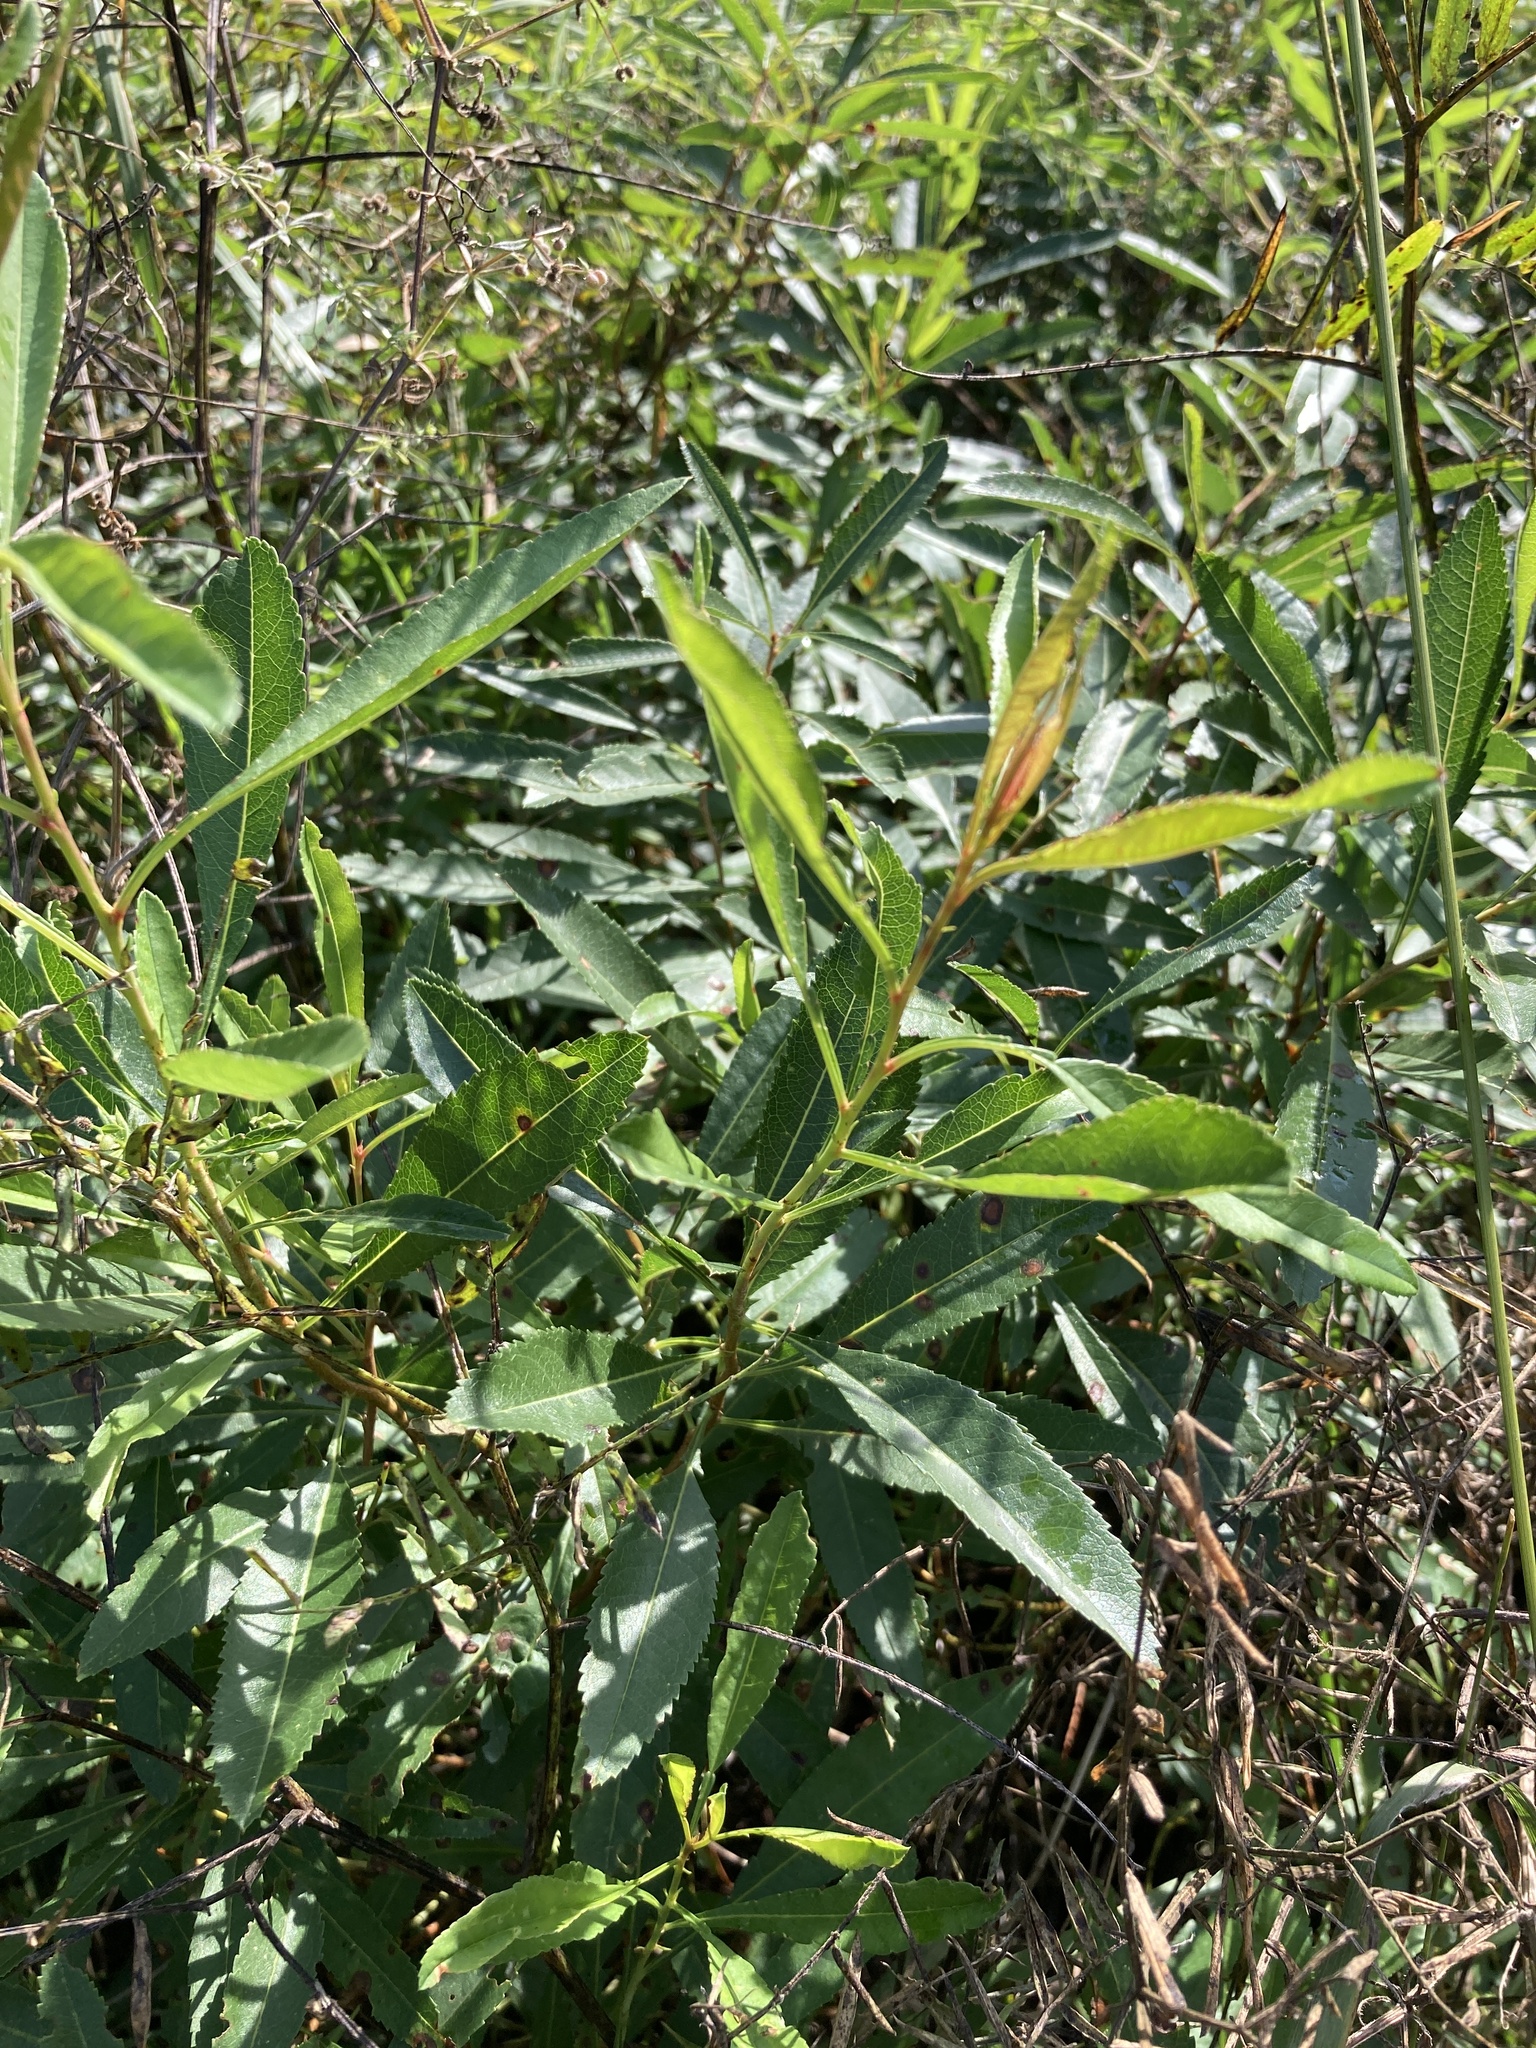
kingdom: Plantae
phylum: Tracheophyta
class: Magnoliopsida
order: Rosales
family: Rosaceae
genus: Prunus
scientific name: Prunus tenella
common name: Dwarf russian almond
